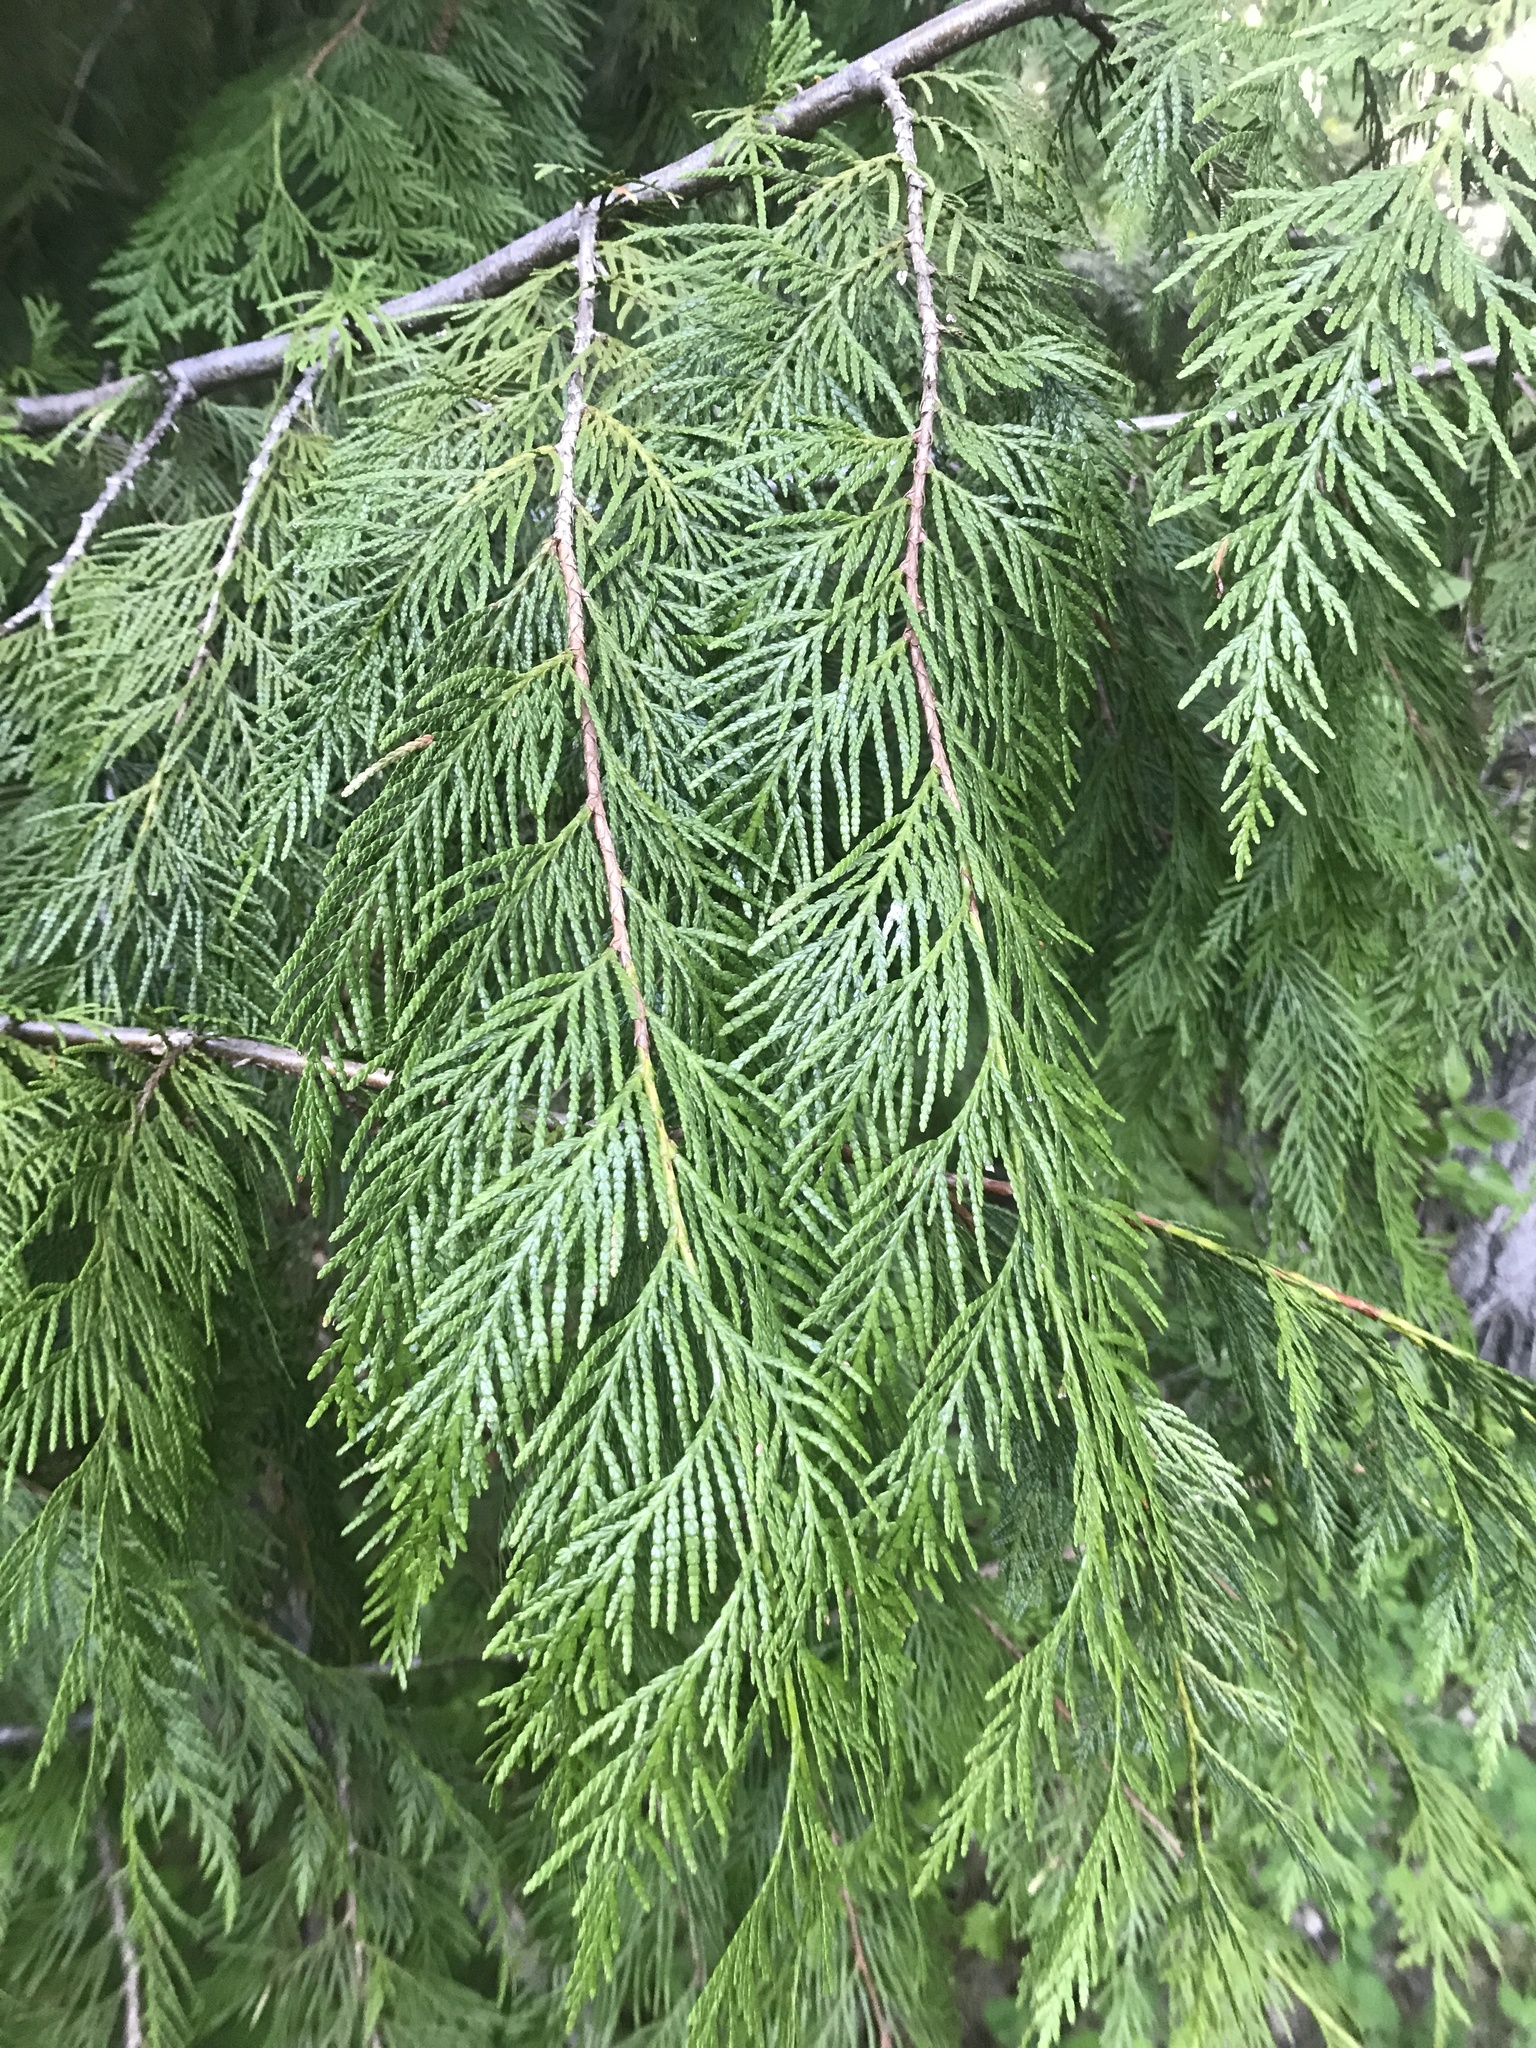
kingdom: Plantae
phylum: Tracheophyta
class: Pinopsida
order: Pinales
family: Cupressaceae
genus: Thuja
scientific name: Thuja plicata
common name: Western red-cedar
